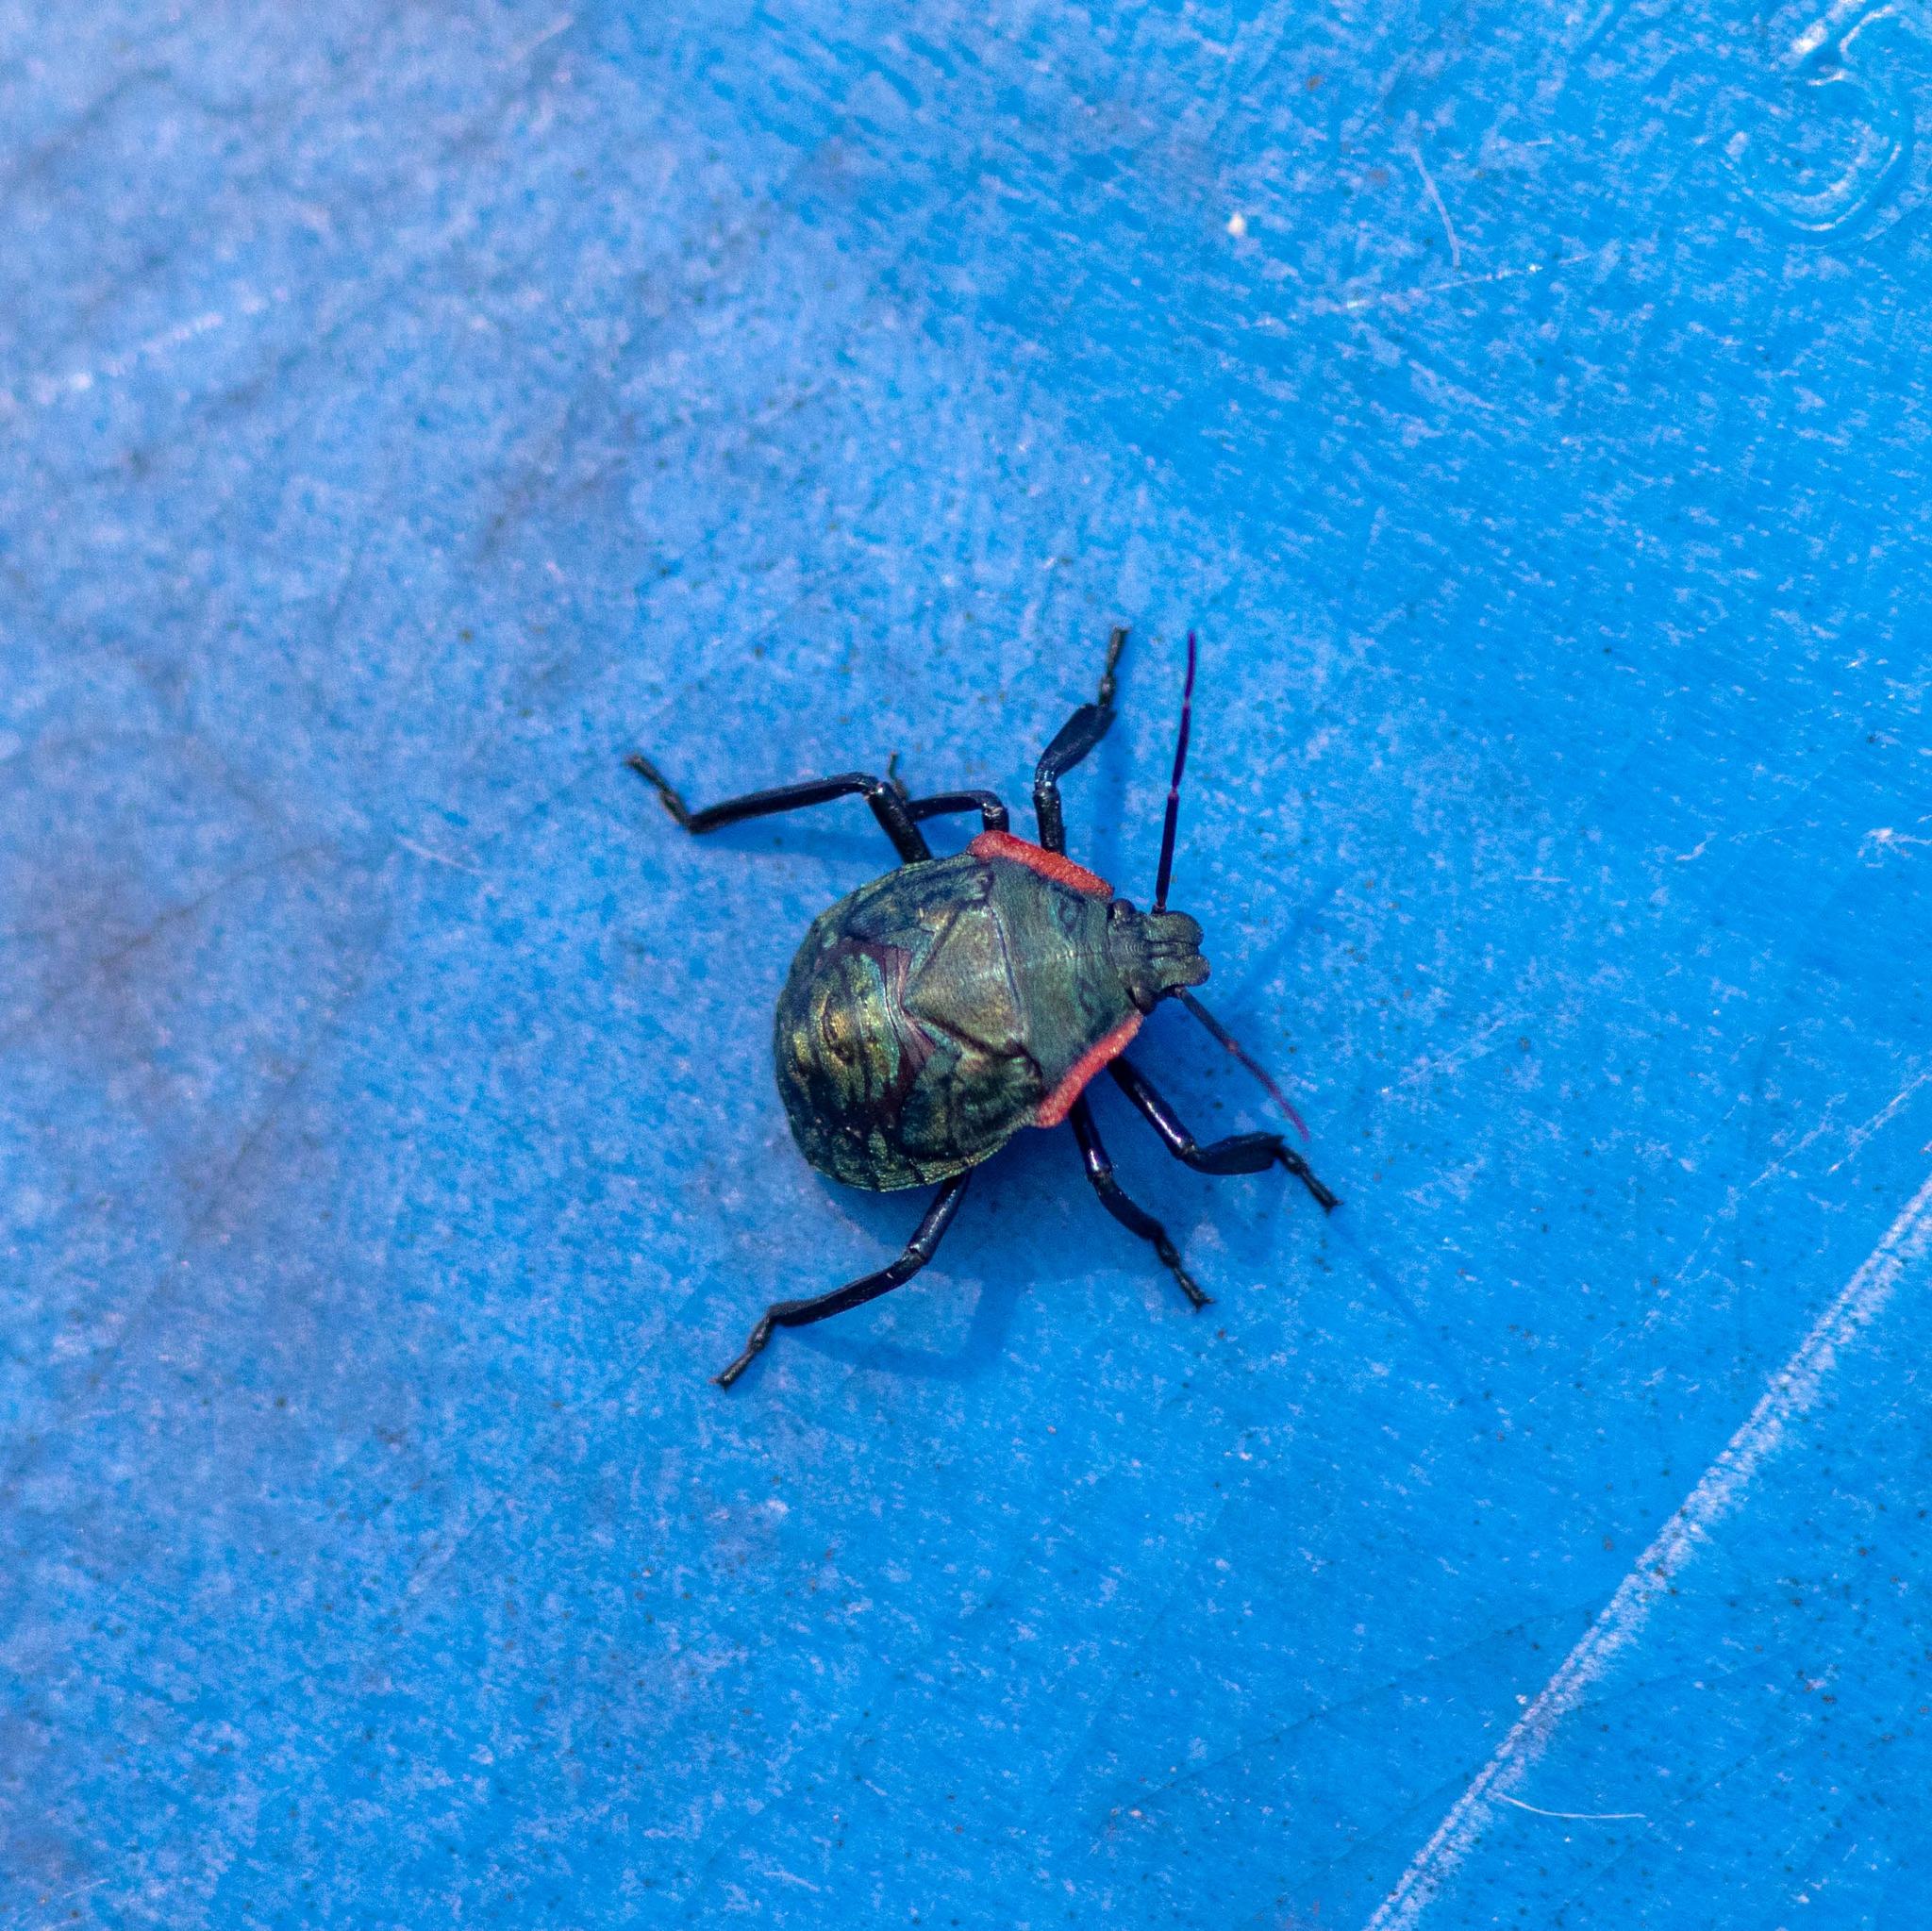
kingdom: Animalia
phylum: Arthropoda
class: Insecta
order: Hemiptera
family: Pentatomidae
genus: Alcaeorrhynchus
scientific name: Alcaeorrhynchus grandis
